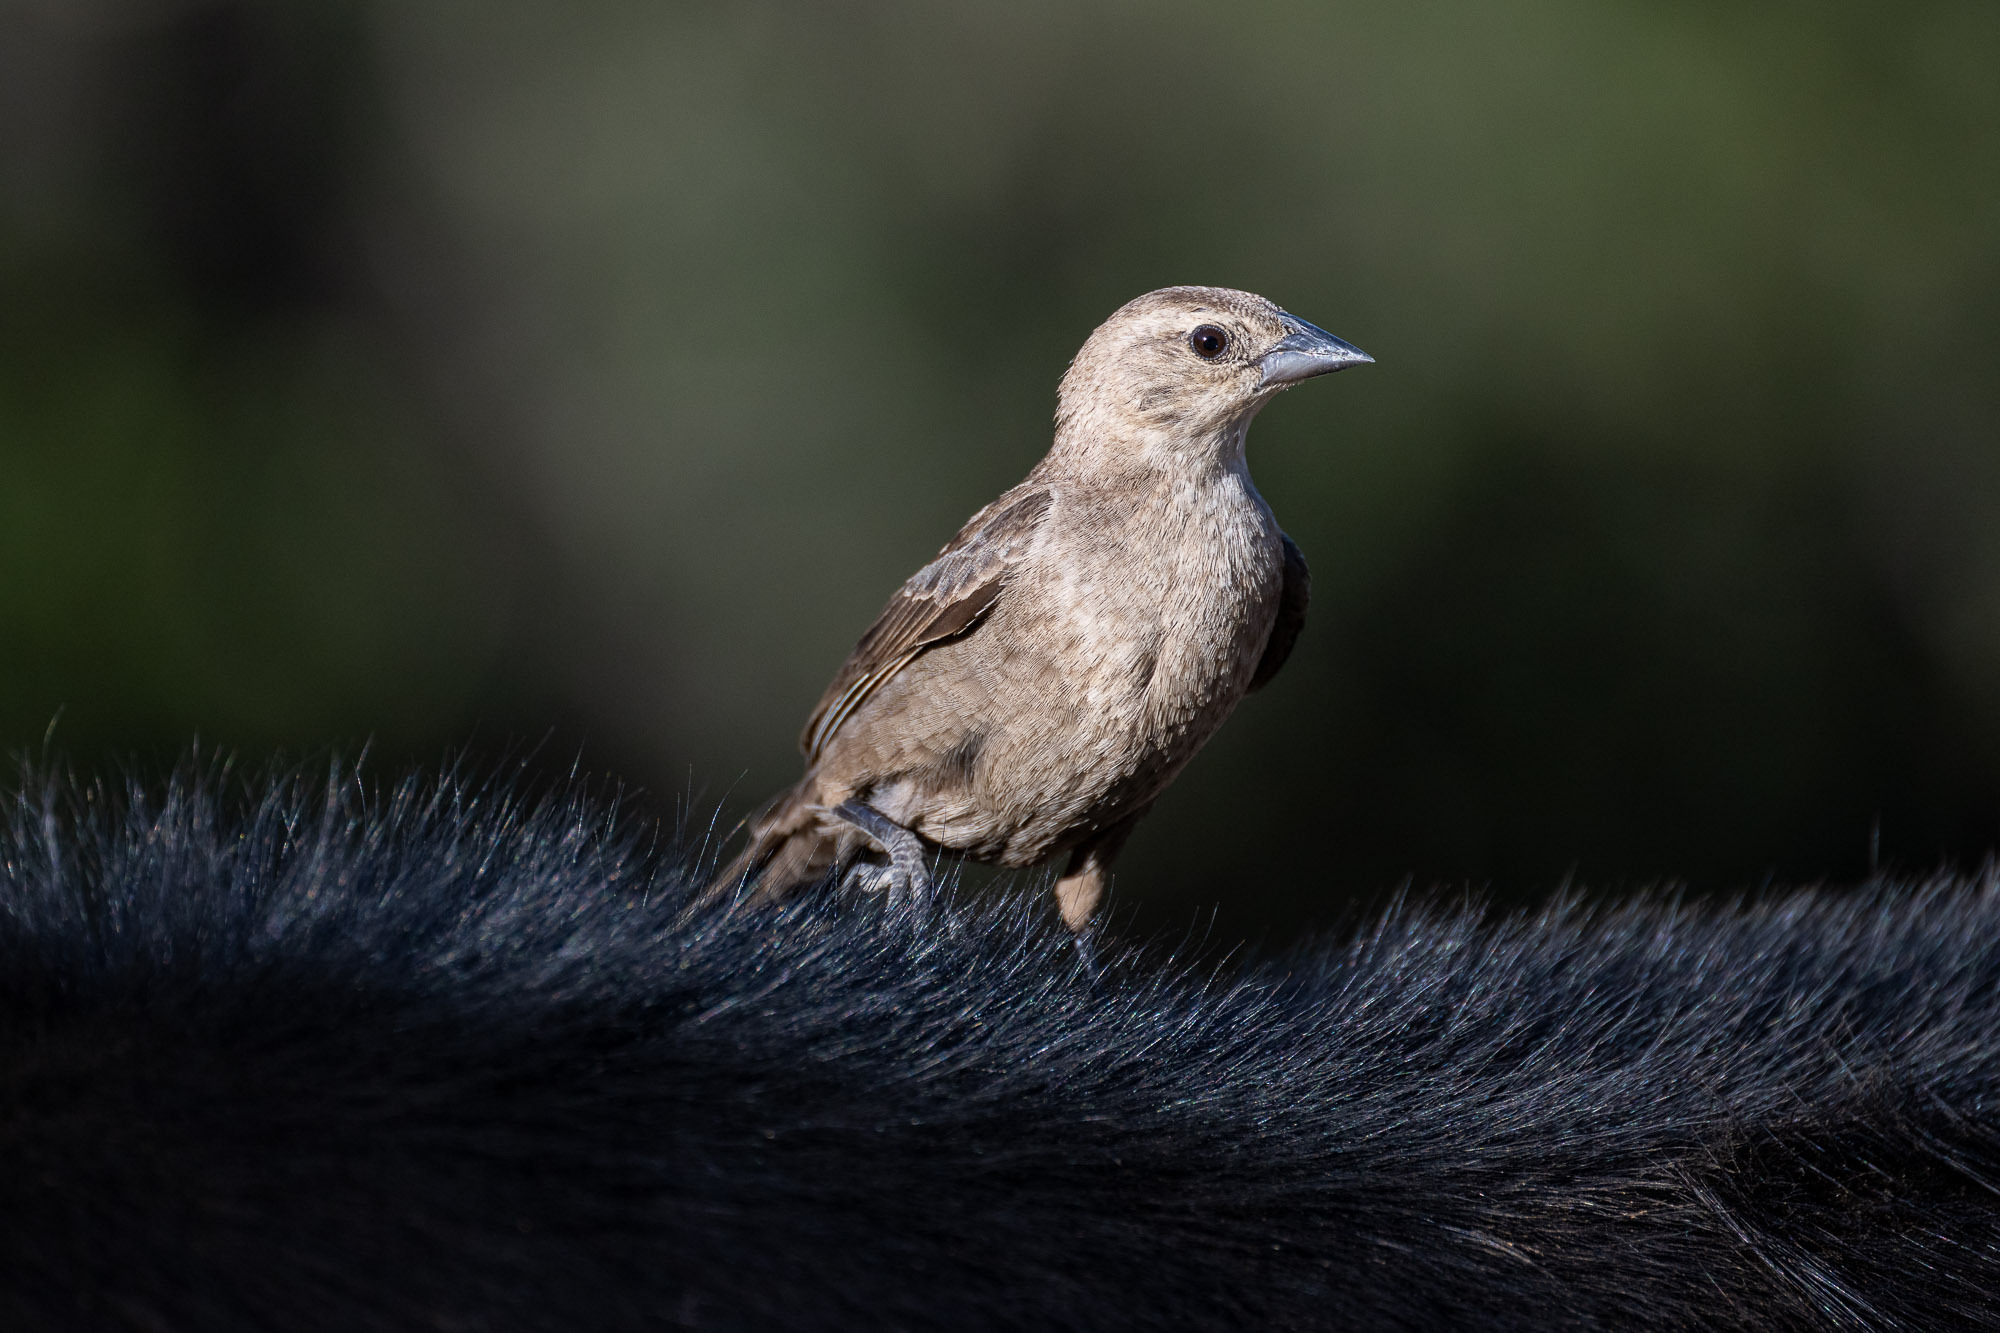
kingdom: Animalia
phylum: Chordata
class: Aves
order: Passeriformes
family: Icteridae
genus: Molothrus
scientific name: Molothrus ater
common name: Brown-headed cowbird
